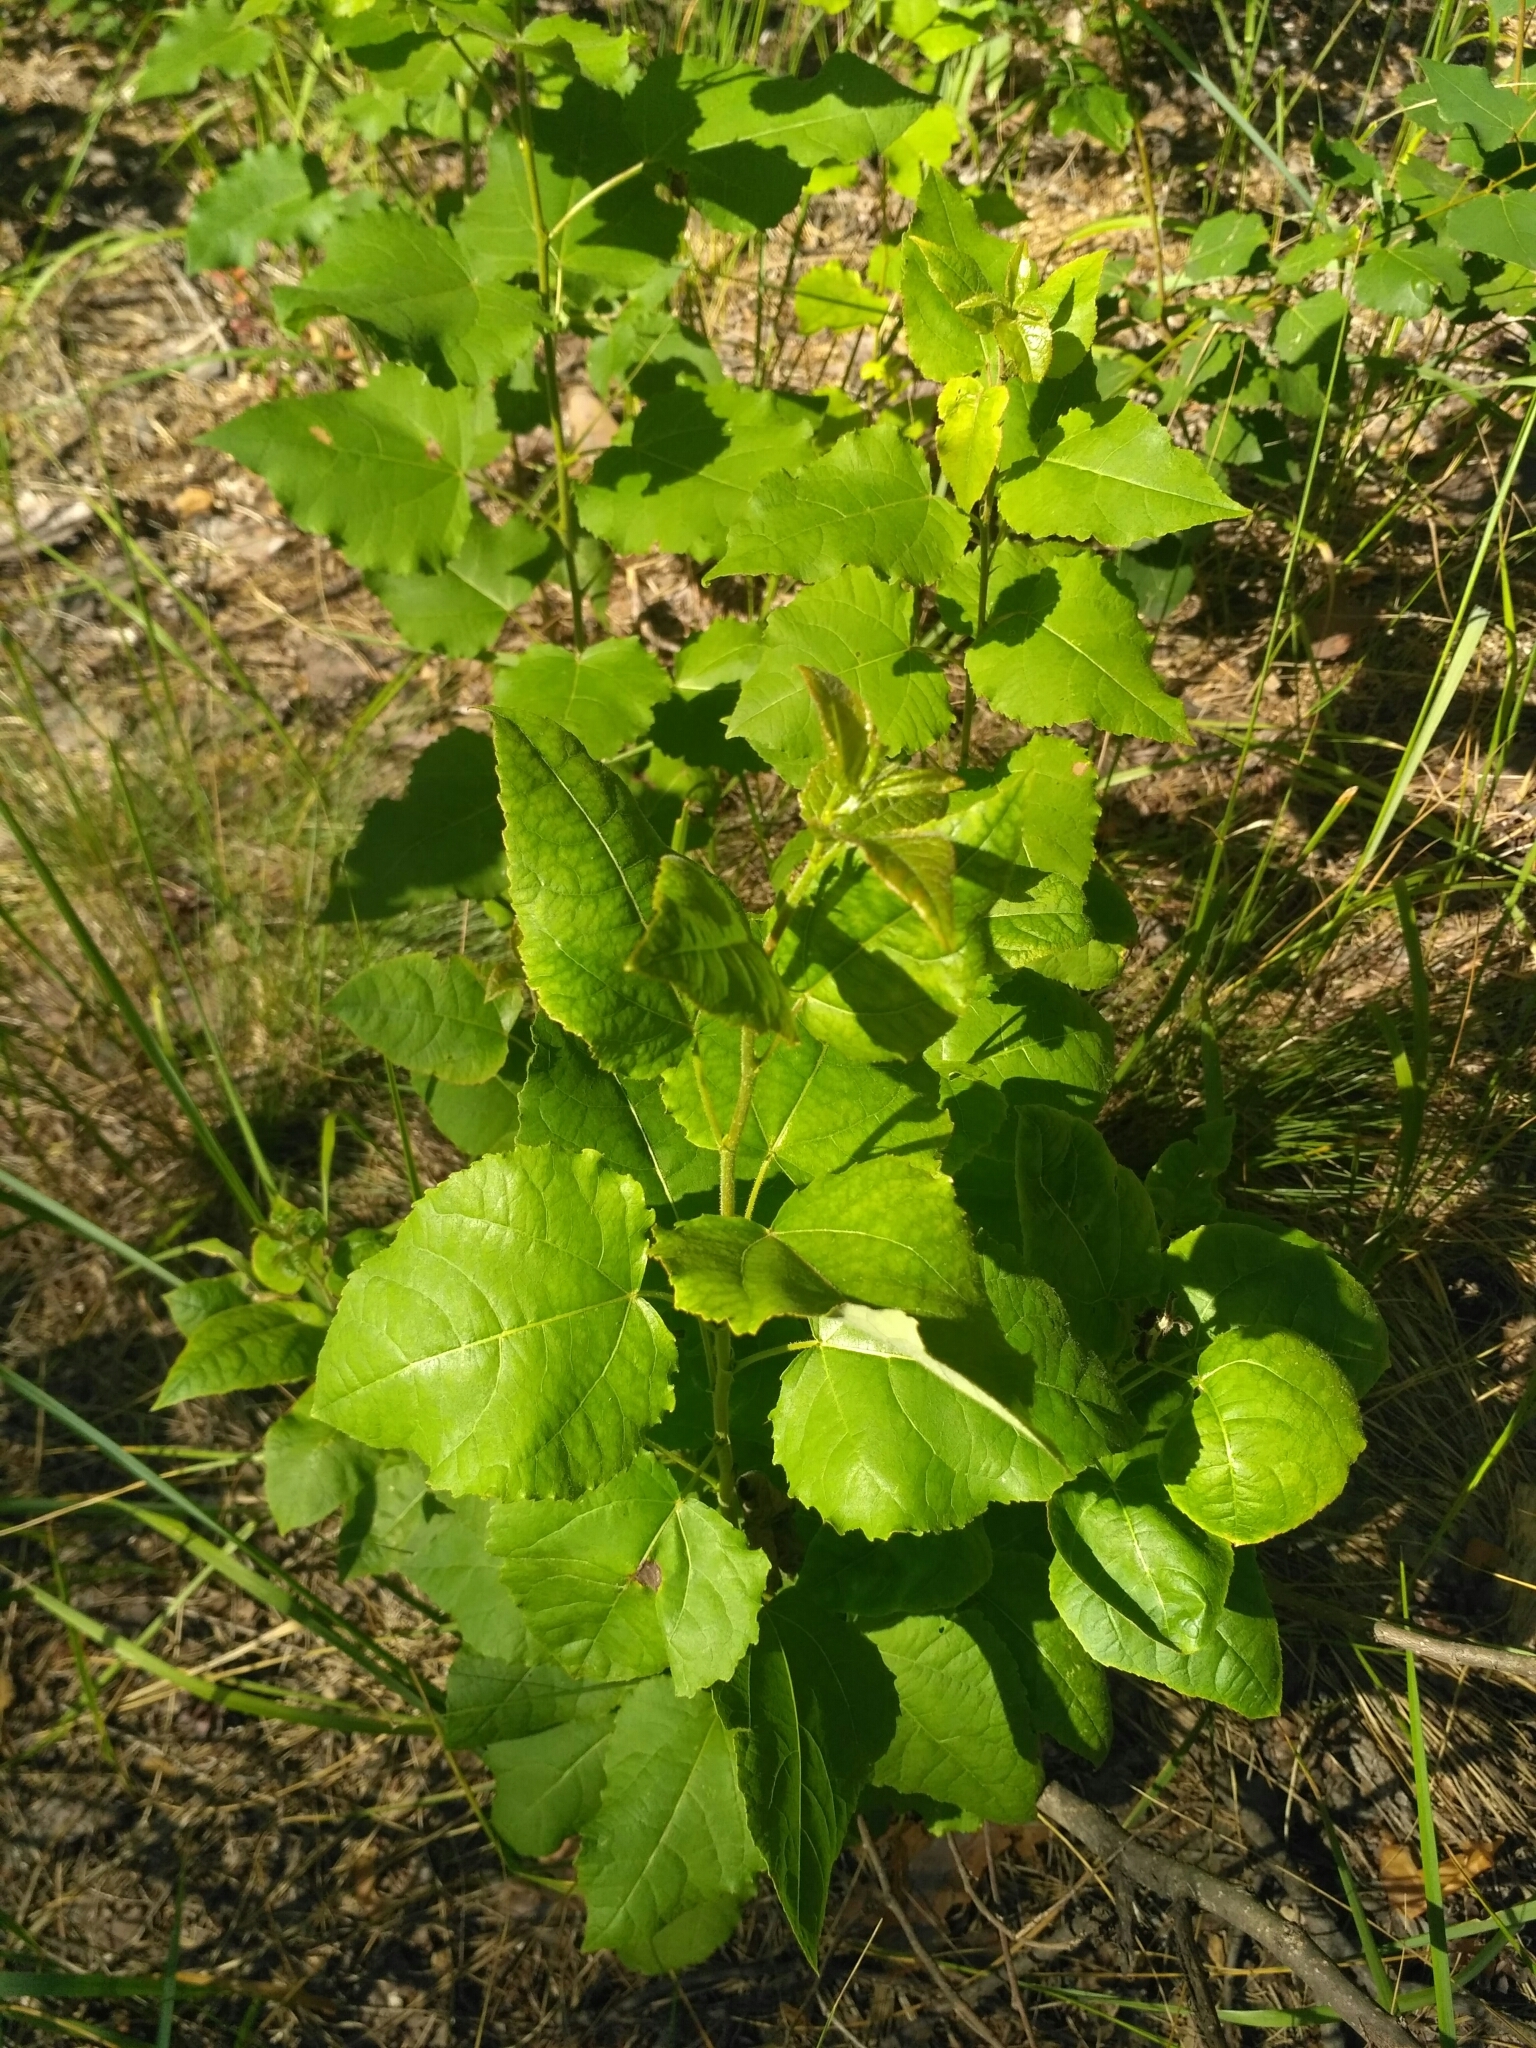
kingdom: Plantae
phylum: Tracheophyta
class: Magnoliopsida
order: Malpighiales
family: Salicaceae
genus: Populus
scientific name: Populus tremula
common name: European aspen
